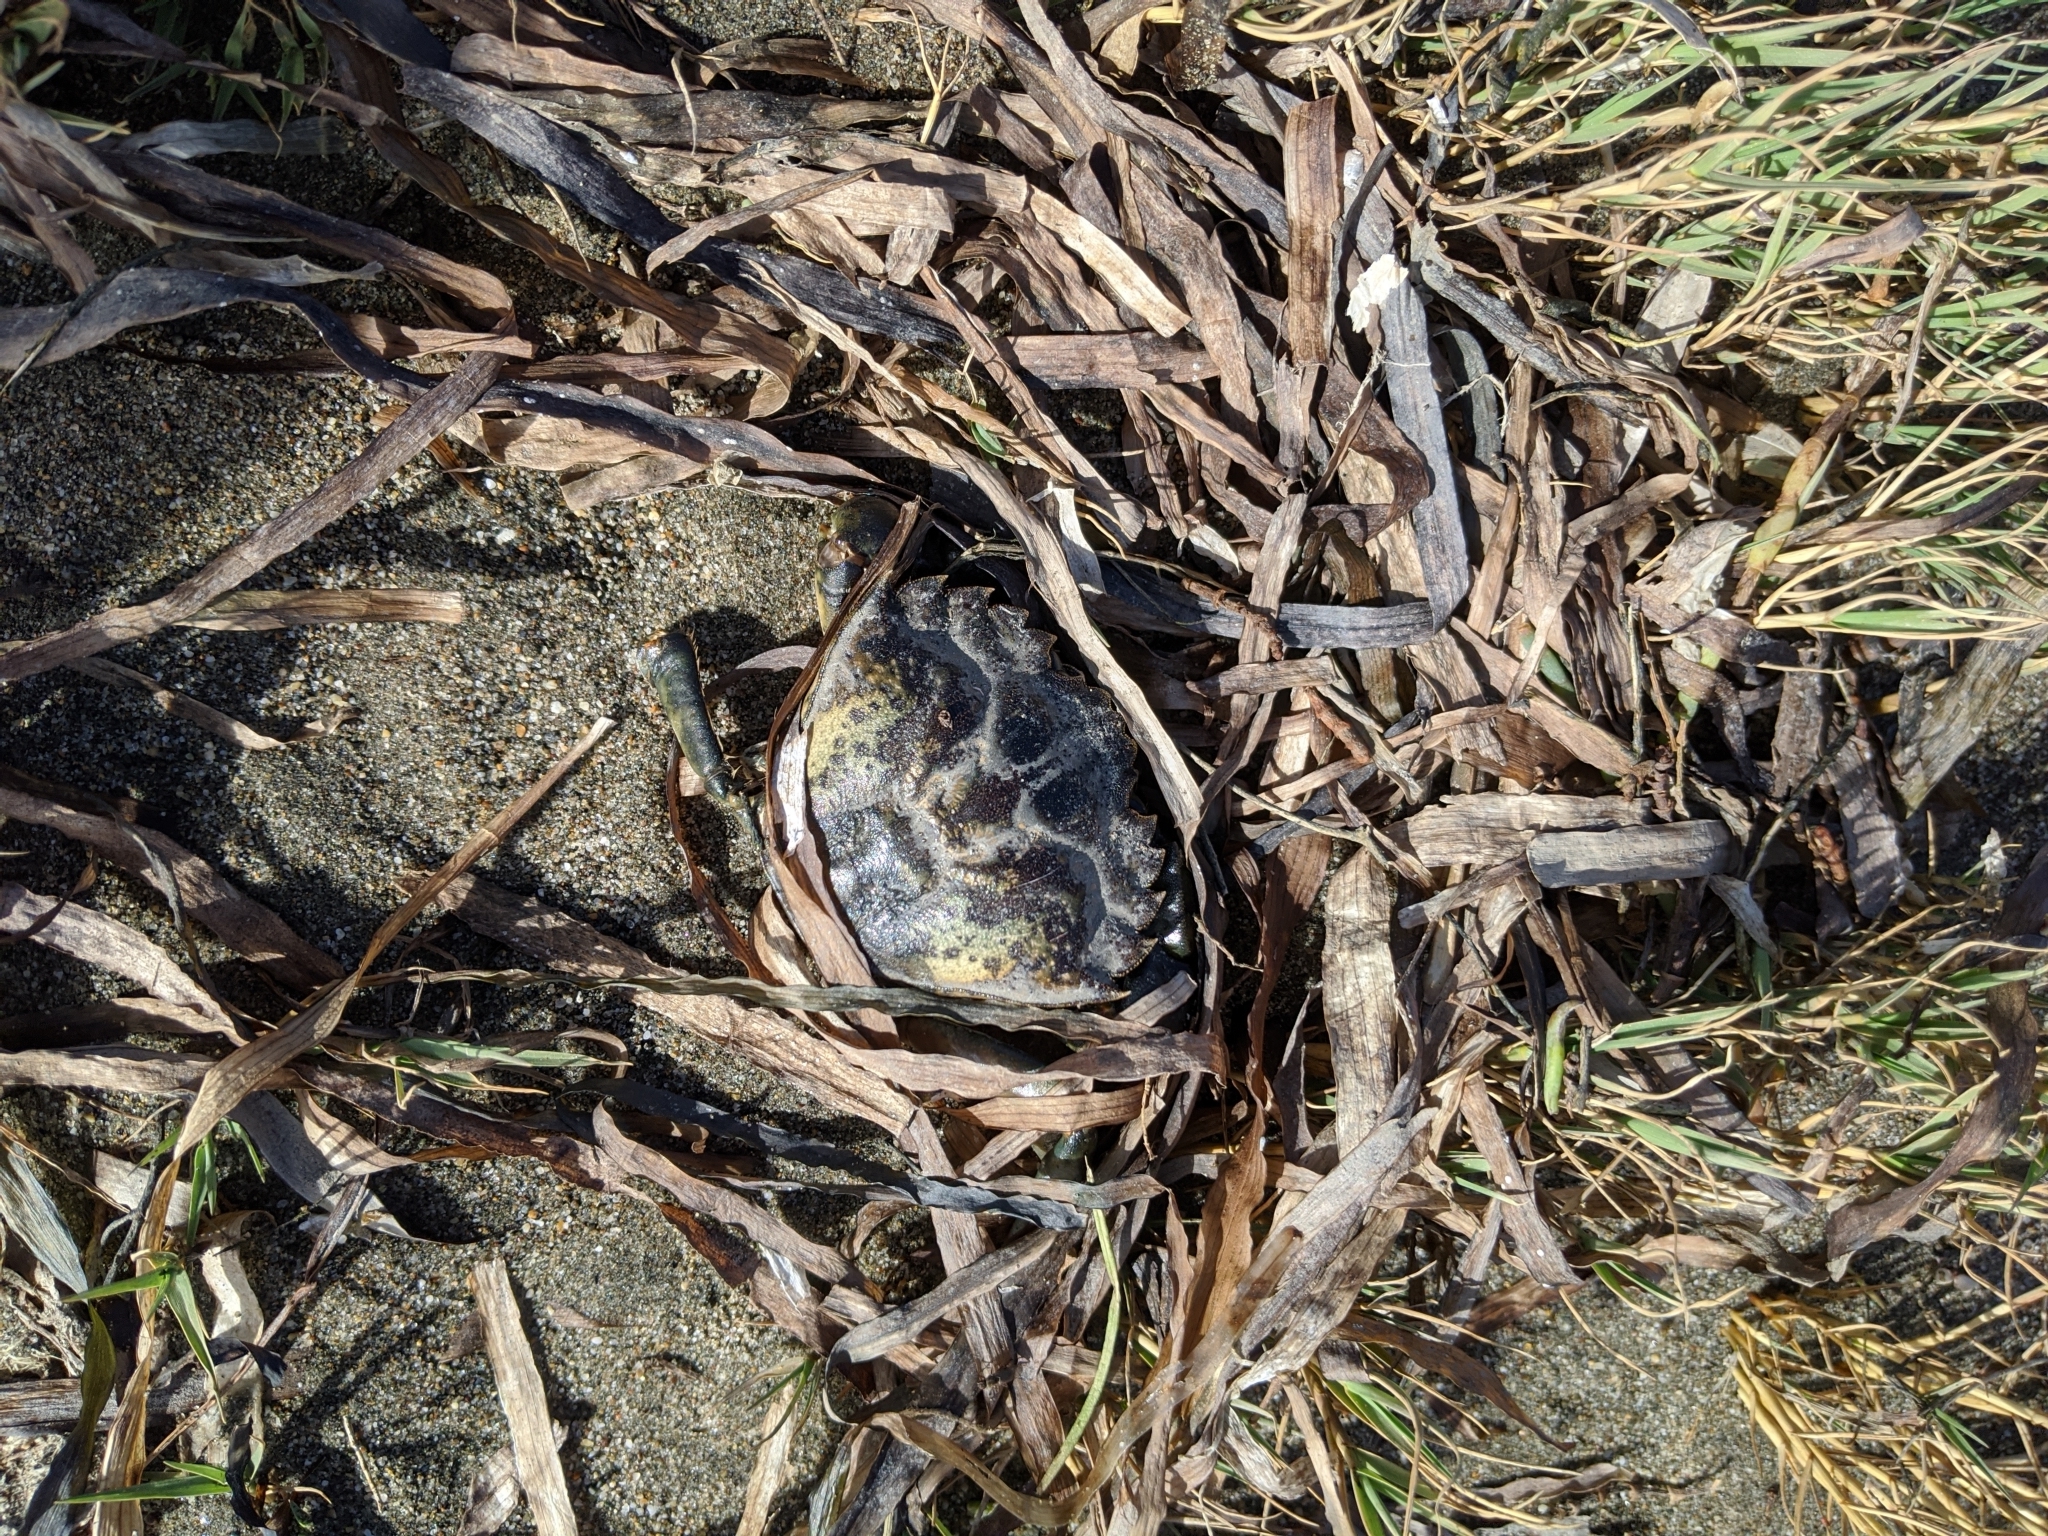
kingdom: Animalia
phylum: Arthropoda
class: Malacostraca
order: Decapoda
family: Carcinidae
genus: Carcinus
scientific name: Carcinus maenas
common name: European green crab
